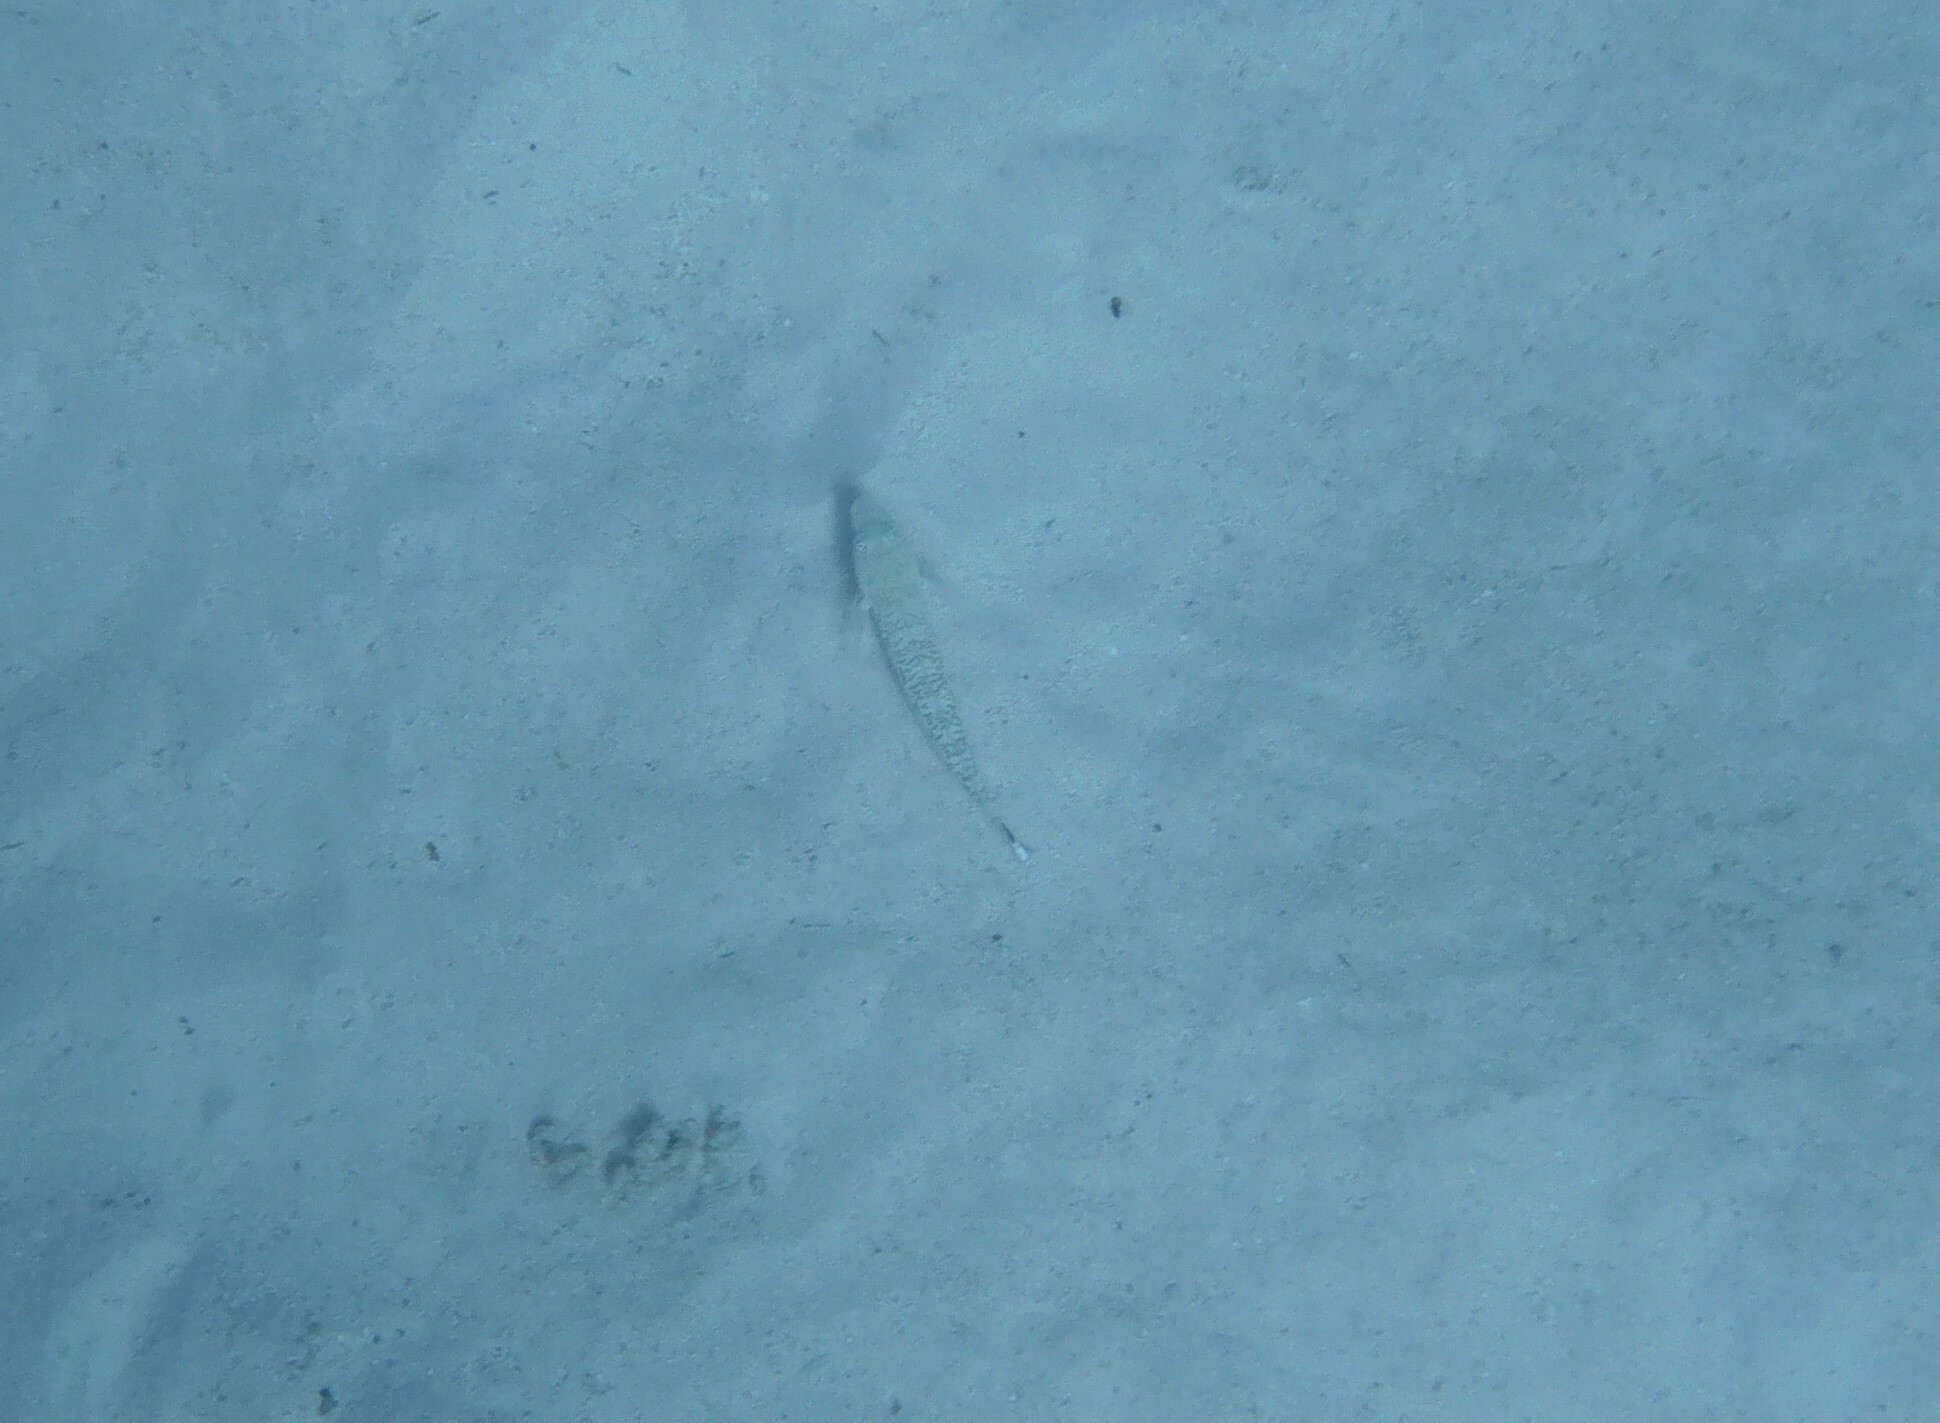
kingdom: Animalia
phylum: Chordata
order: Perciformes
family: Pinguipedidae
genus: Parapercis
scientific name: Parapercis hexophtalma
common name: Speckled sandperch
